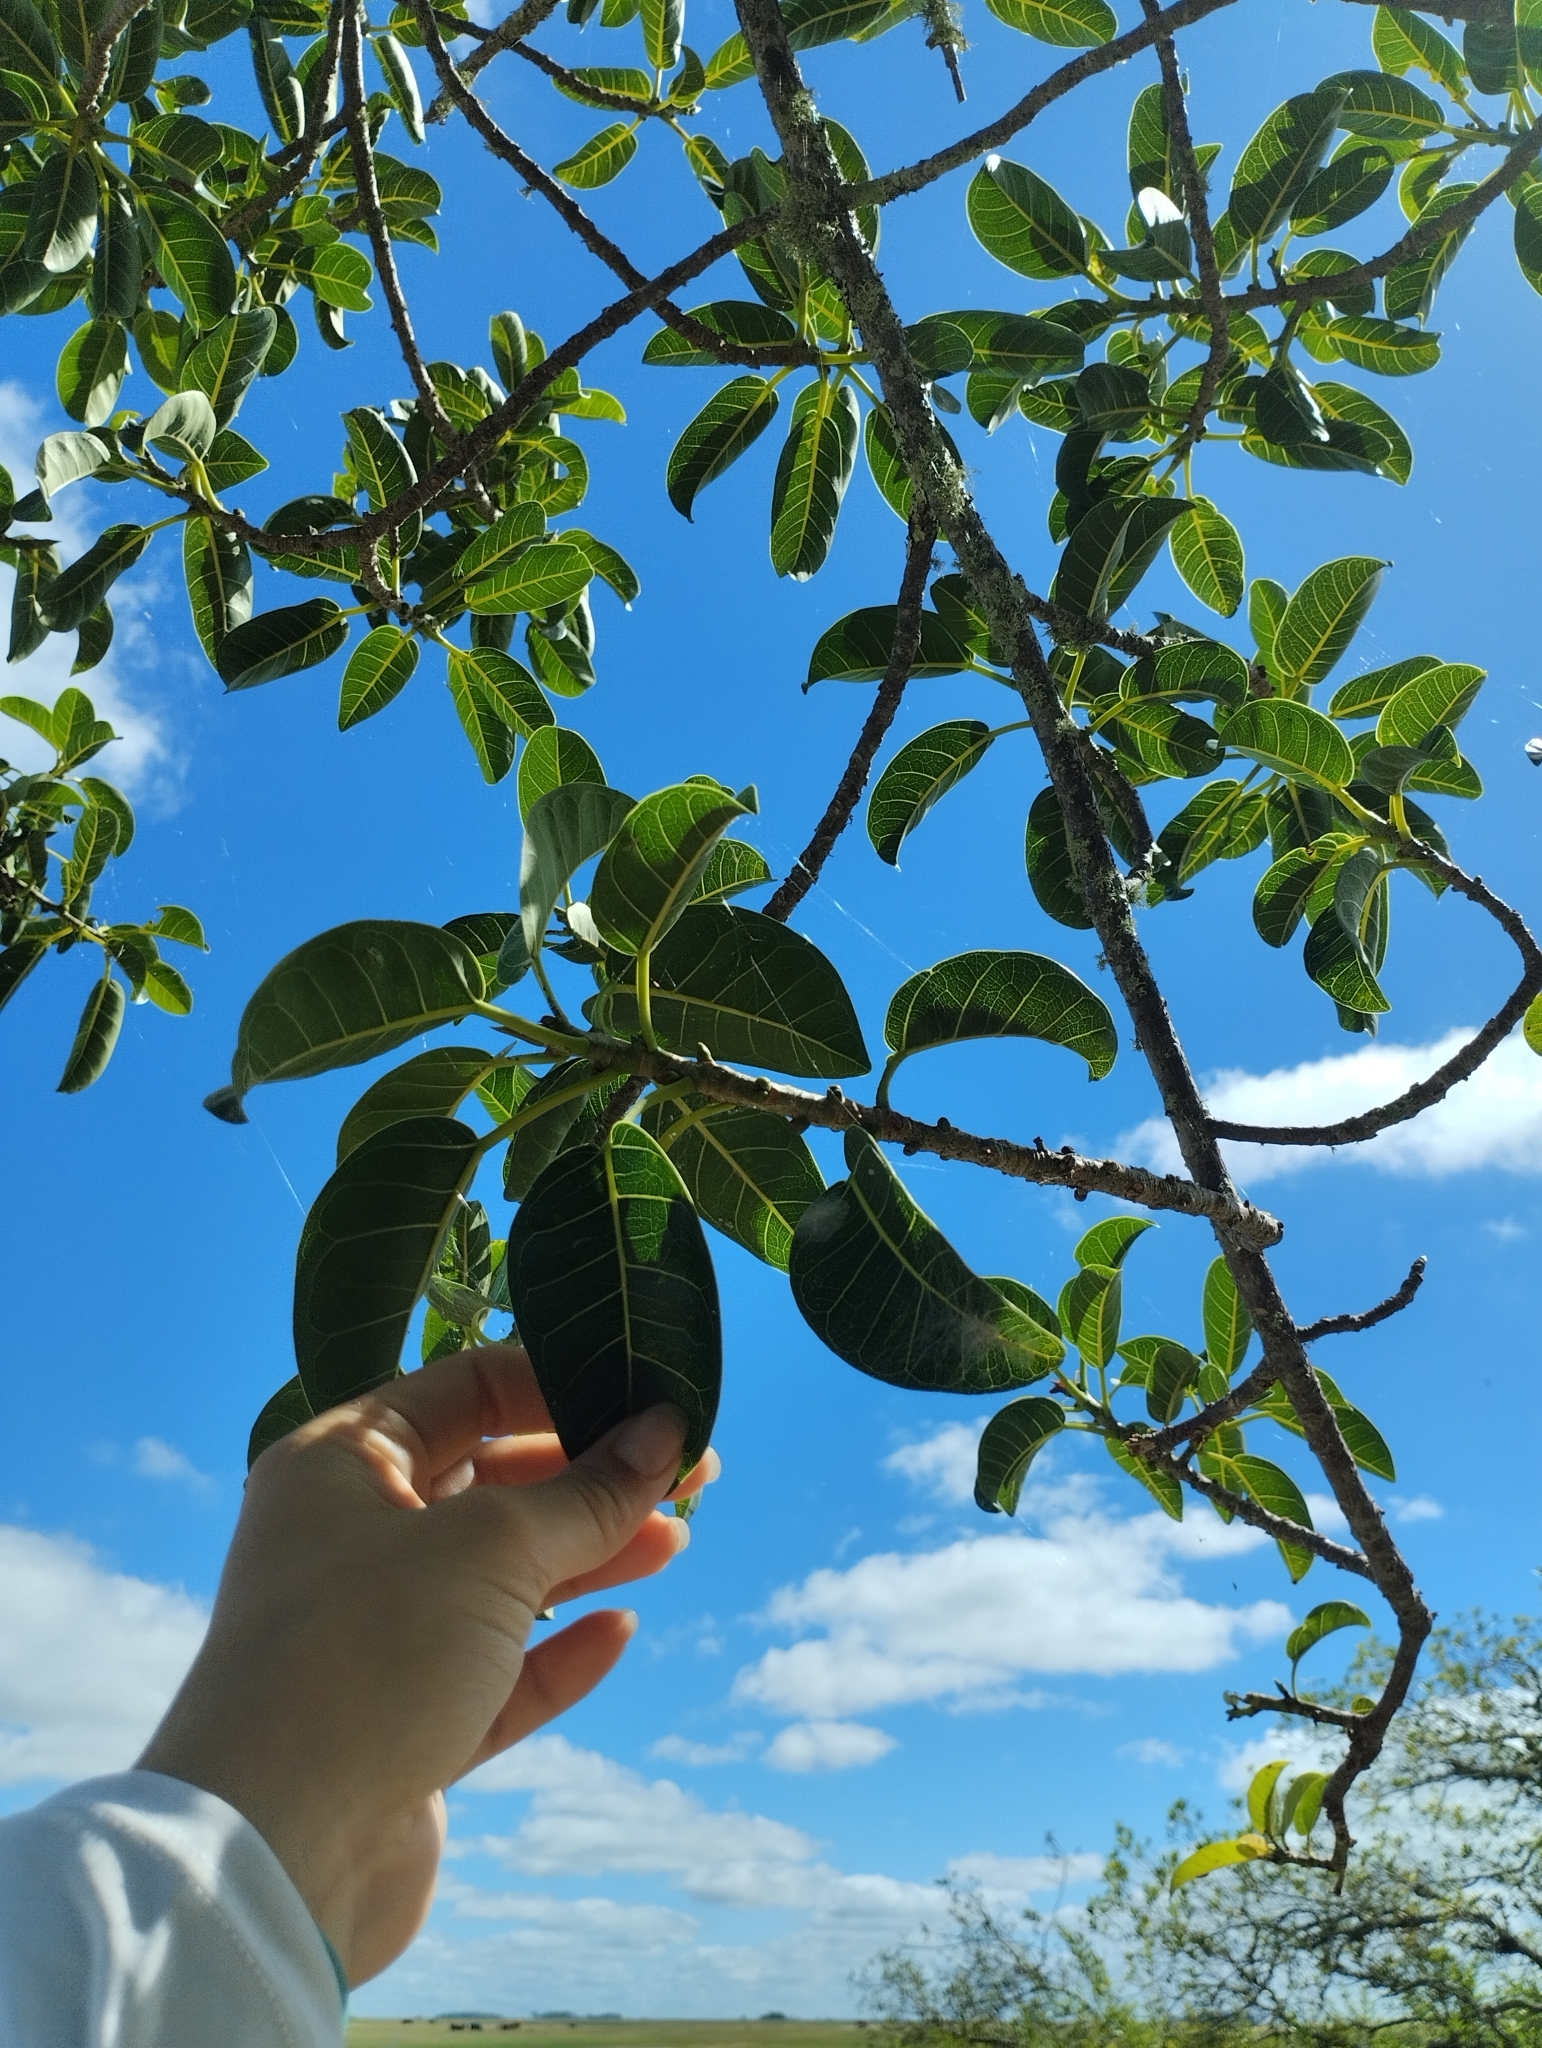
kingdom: Plantae
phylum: Tracheophyta
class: Magnoliopsida
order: Rosales
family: Moraceae
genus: Ficus
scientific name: Ficus luschnathiana
